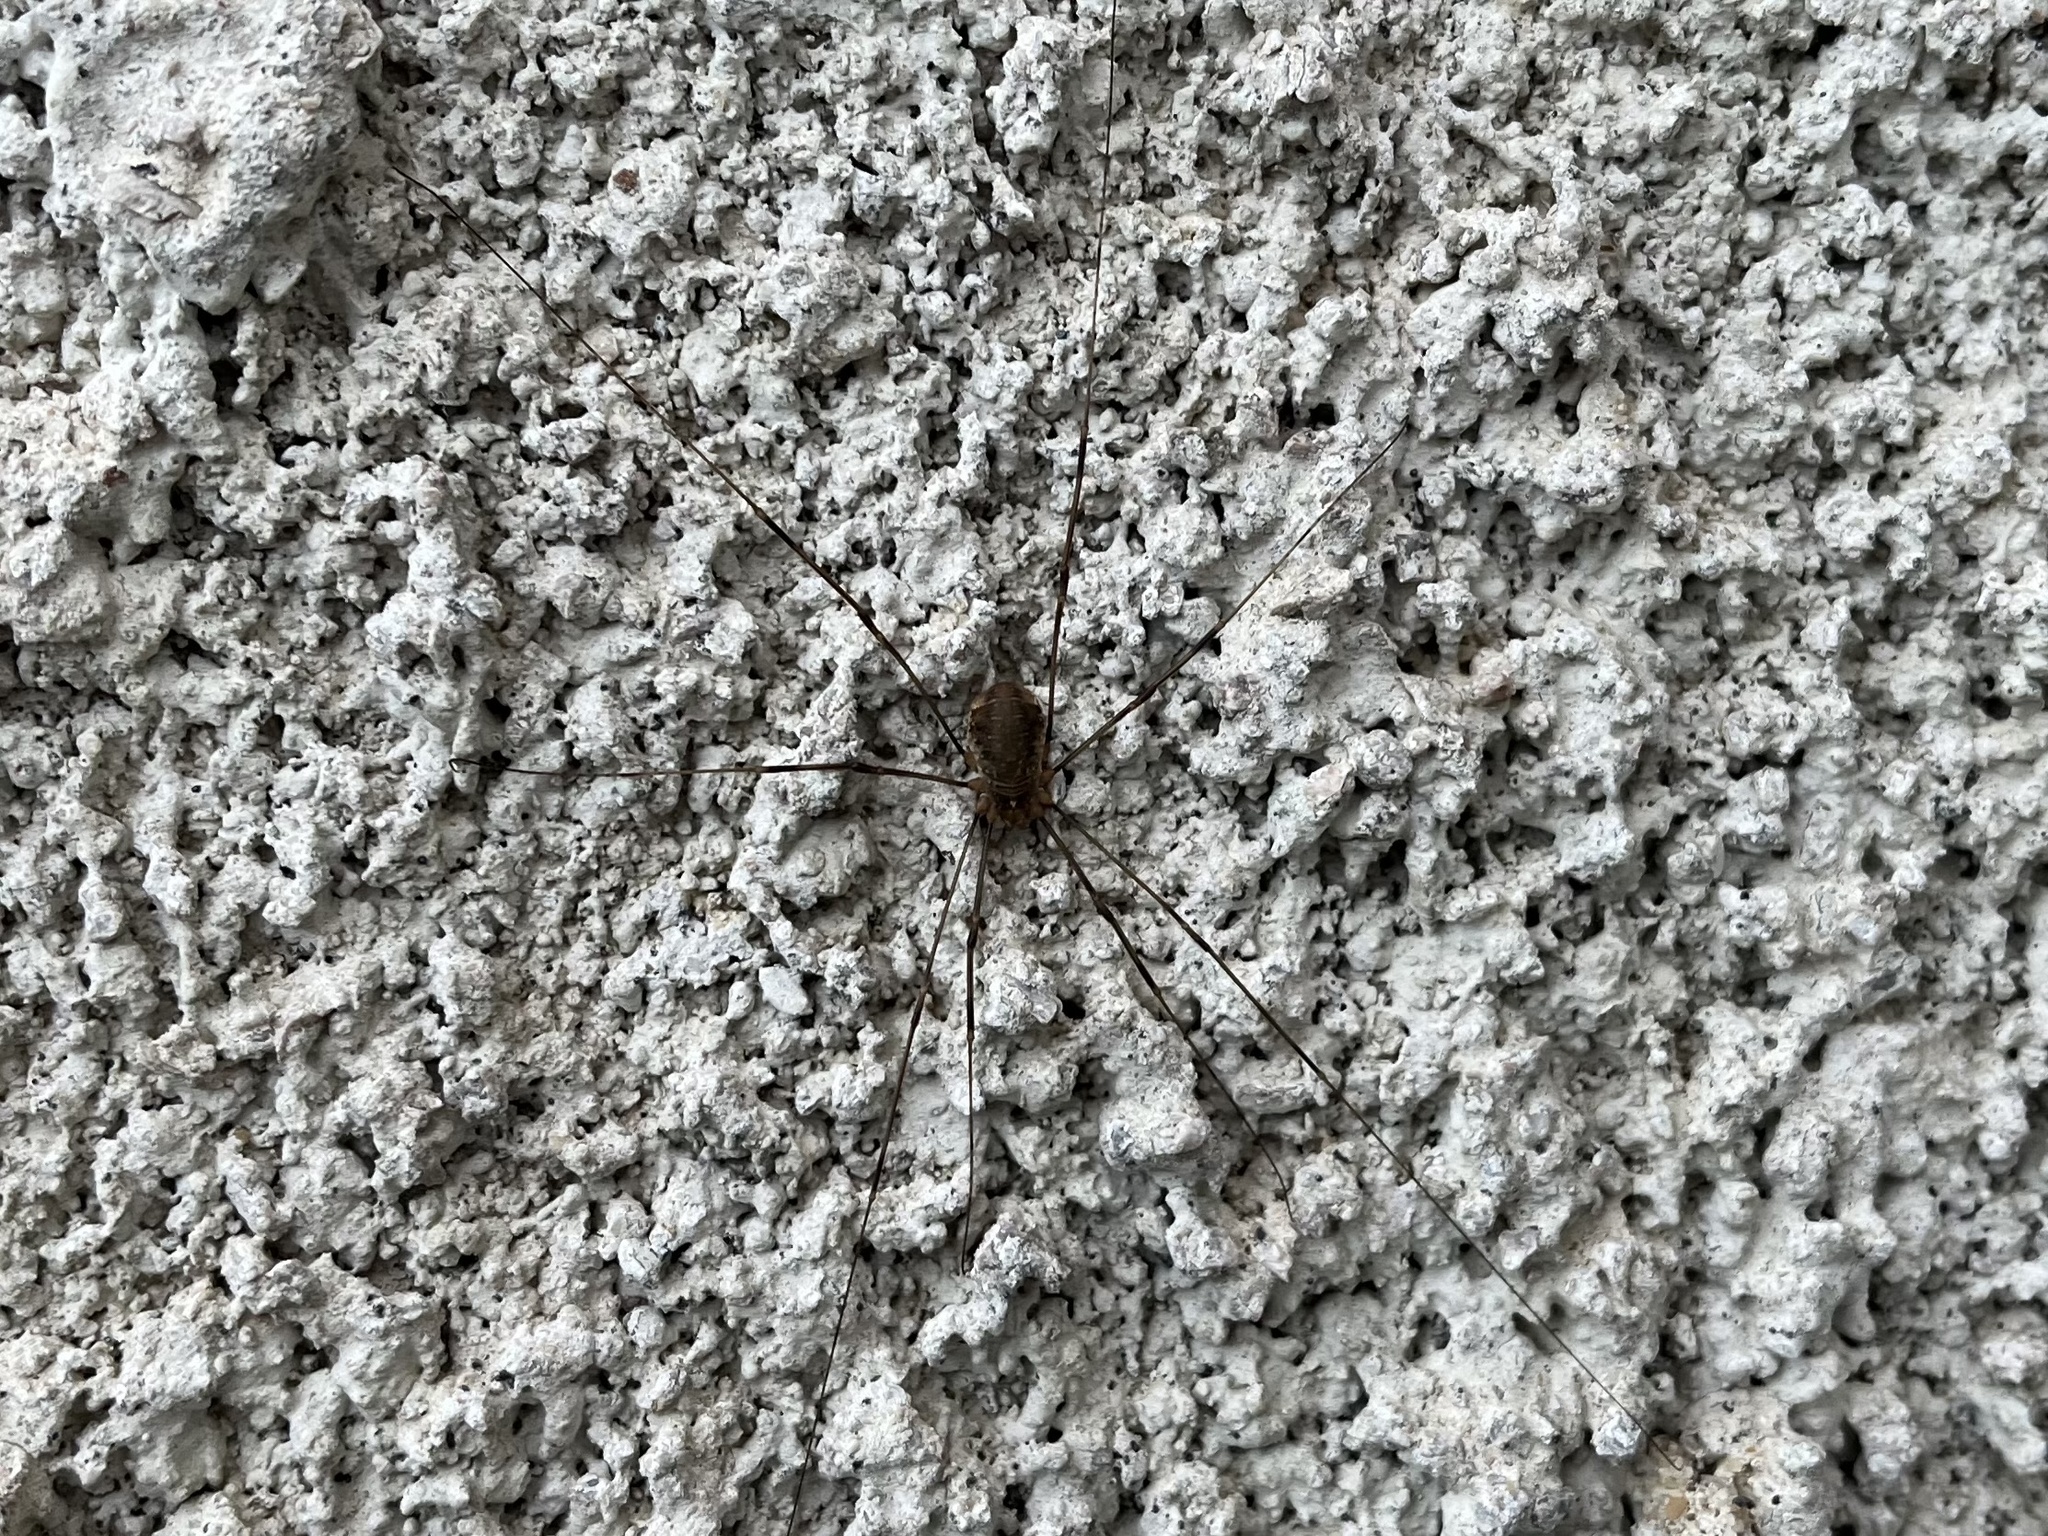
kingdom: Animalia
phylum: Arthropoda
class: Arachnida
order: Opiliones
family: Phalangiidae
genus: Phalangium
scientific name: Phalangium opilio
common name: Daddy longleg
